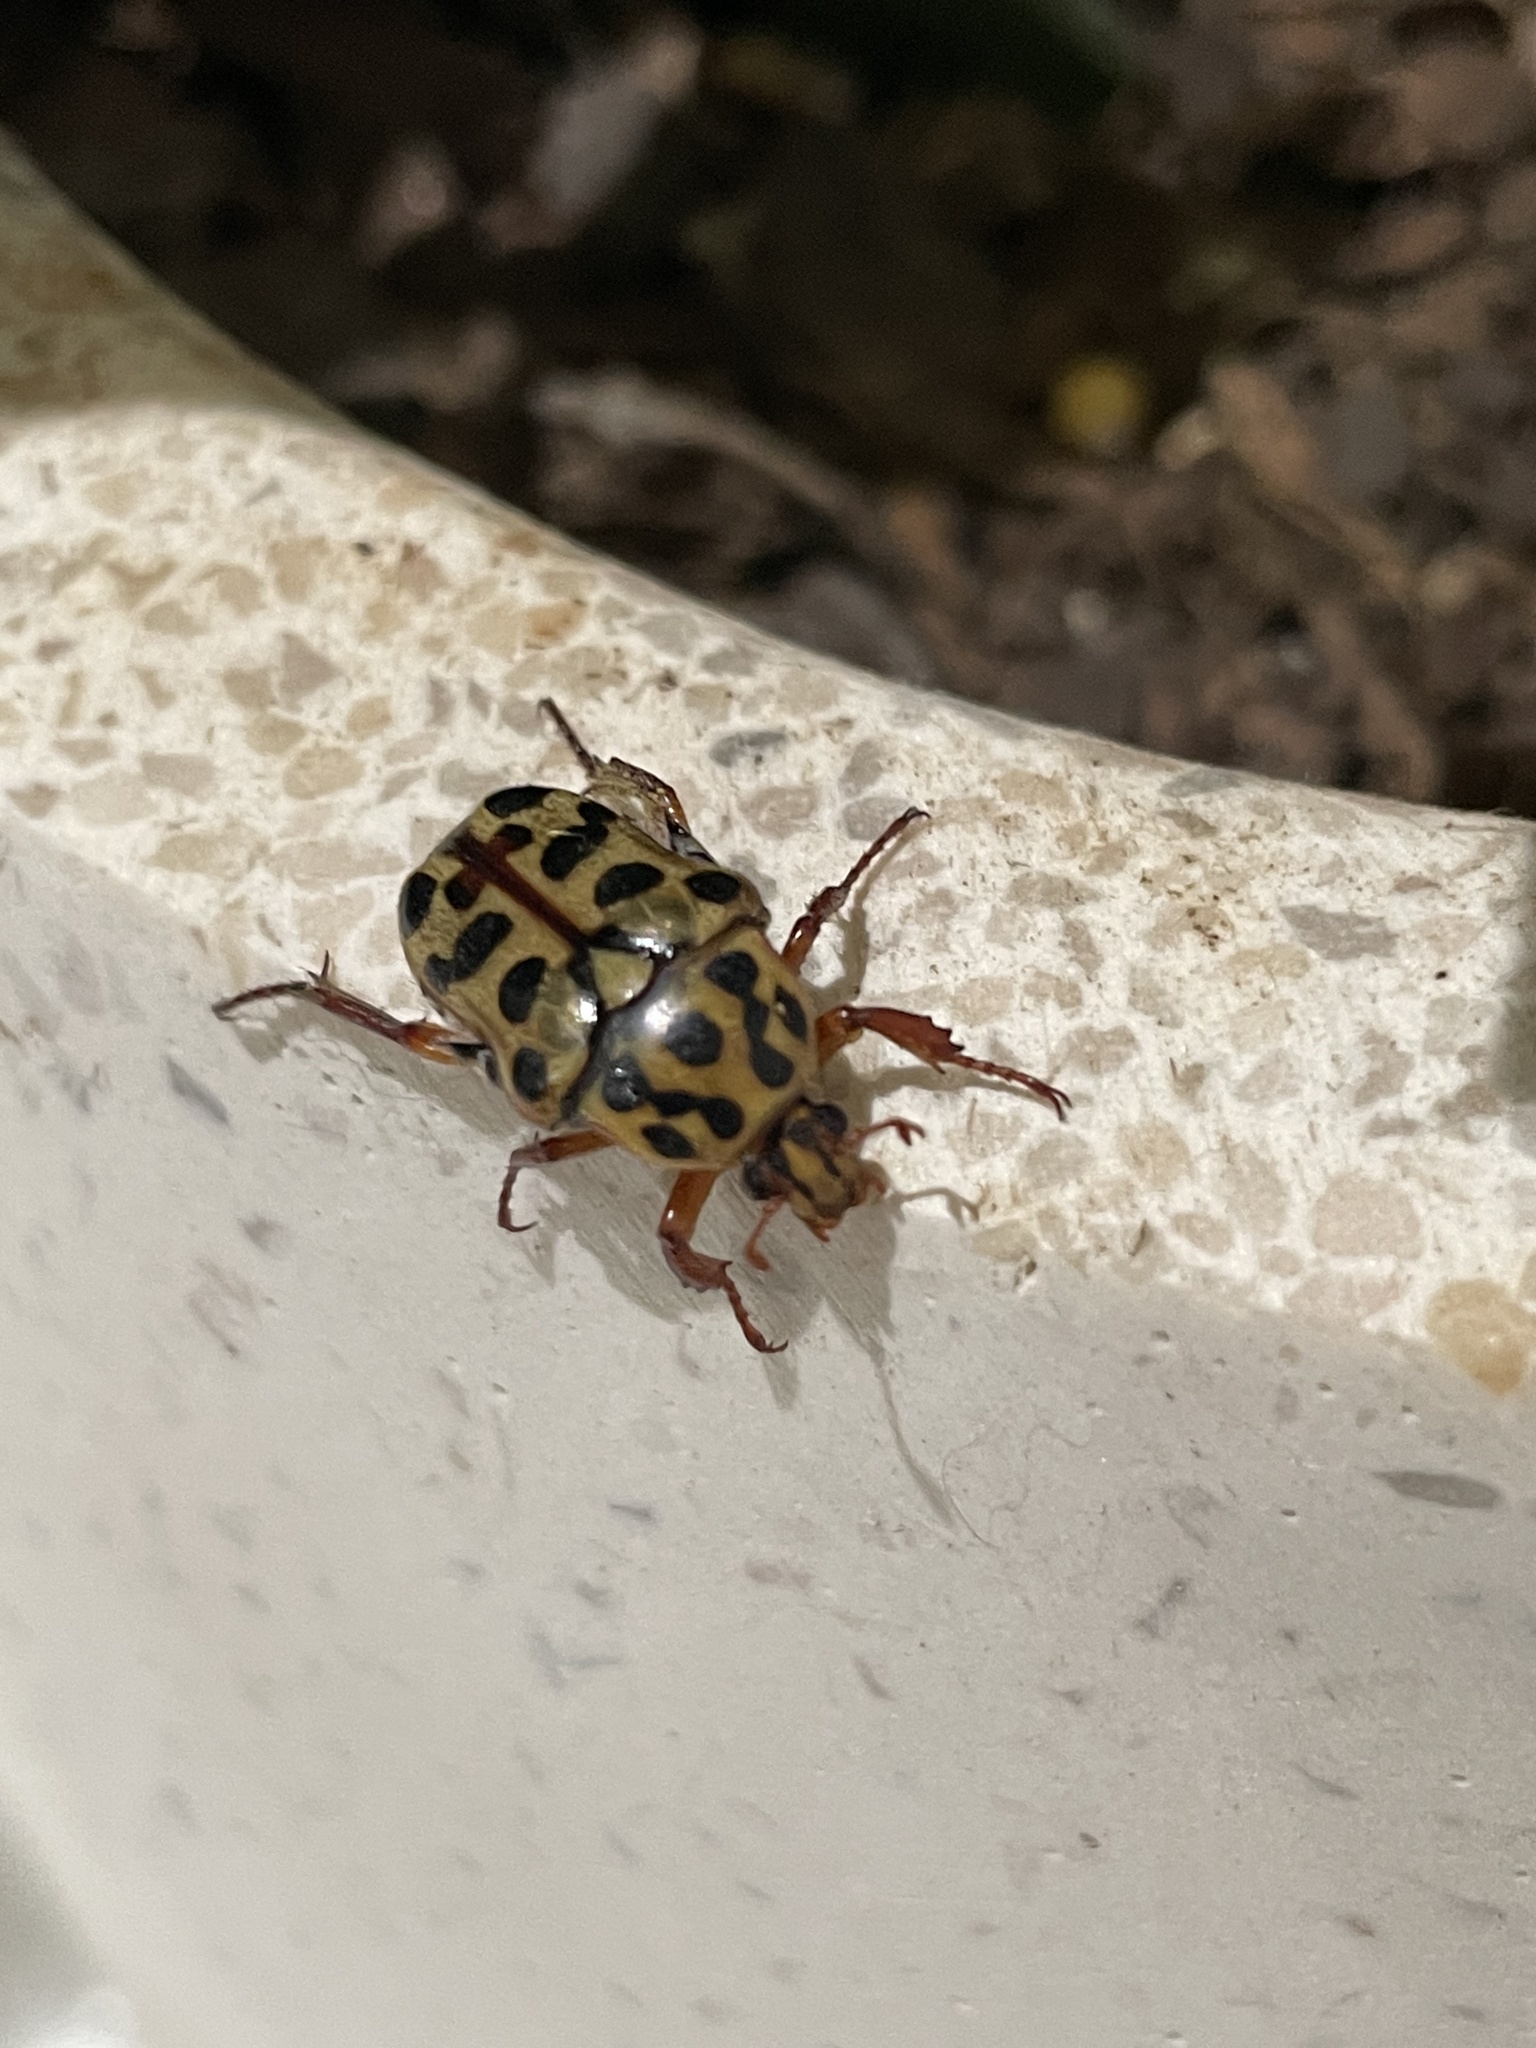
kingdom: Animalia
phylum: Arthropoda
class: Insecta
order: Coleoptera
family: Scarabaeidae
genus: Neorrhina
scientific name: Neorrhina punctatum
